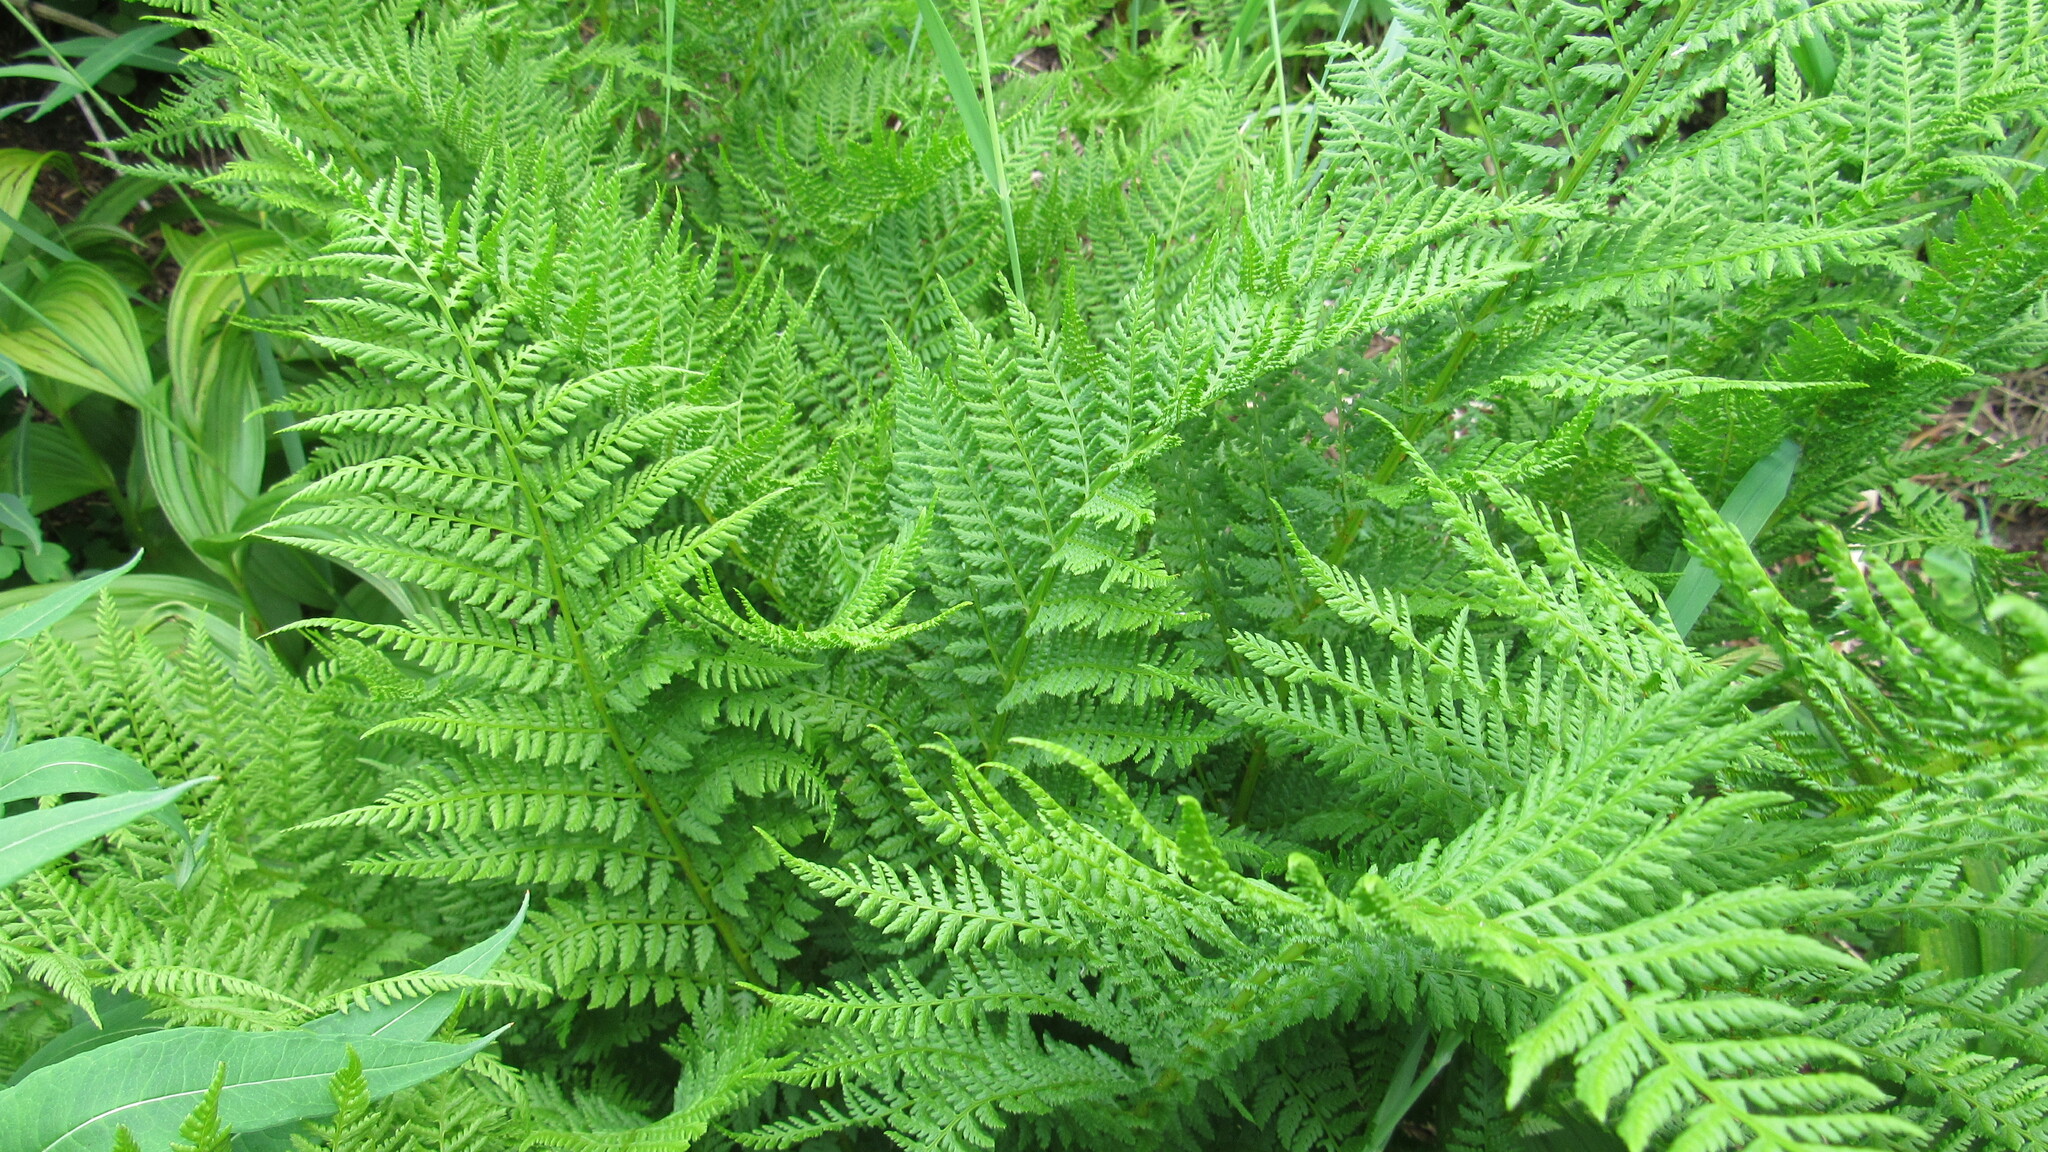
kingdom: Plantae
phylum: Tracheophyta
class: Polypodiopsida
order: Polypodiales
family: Athyriaceae
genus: Athyrium
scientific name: Athyrium filix-femina
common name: Lady fern
